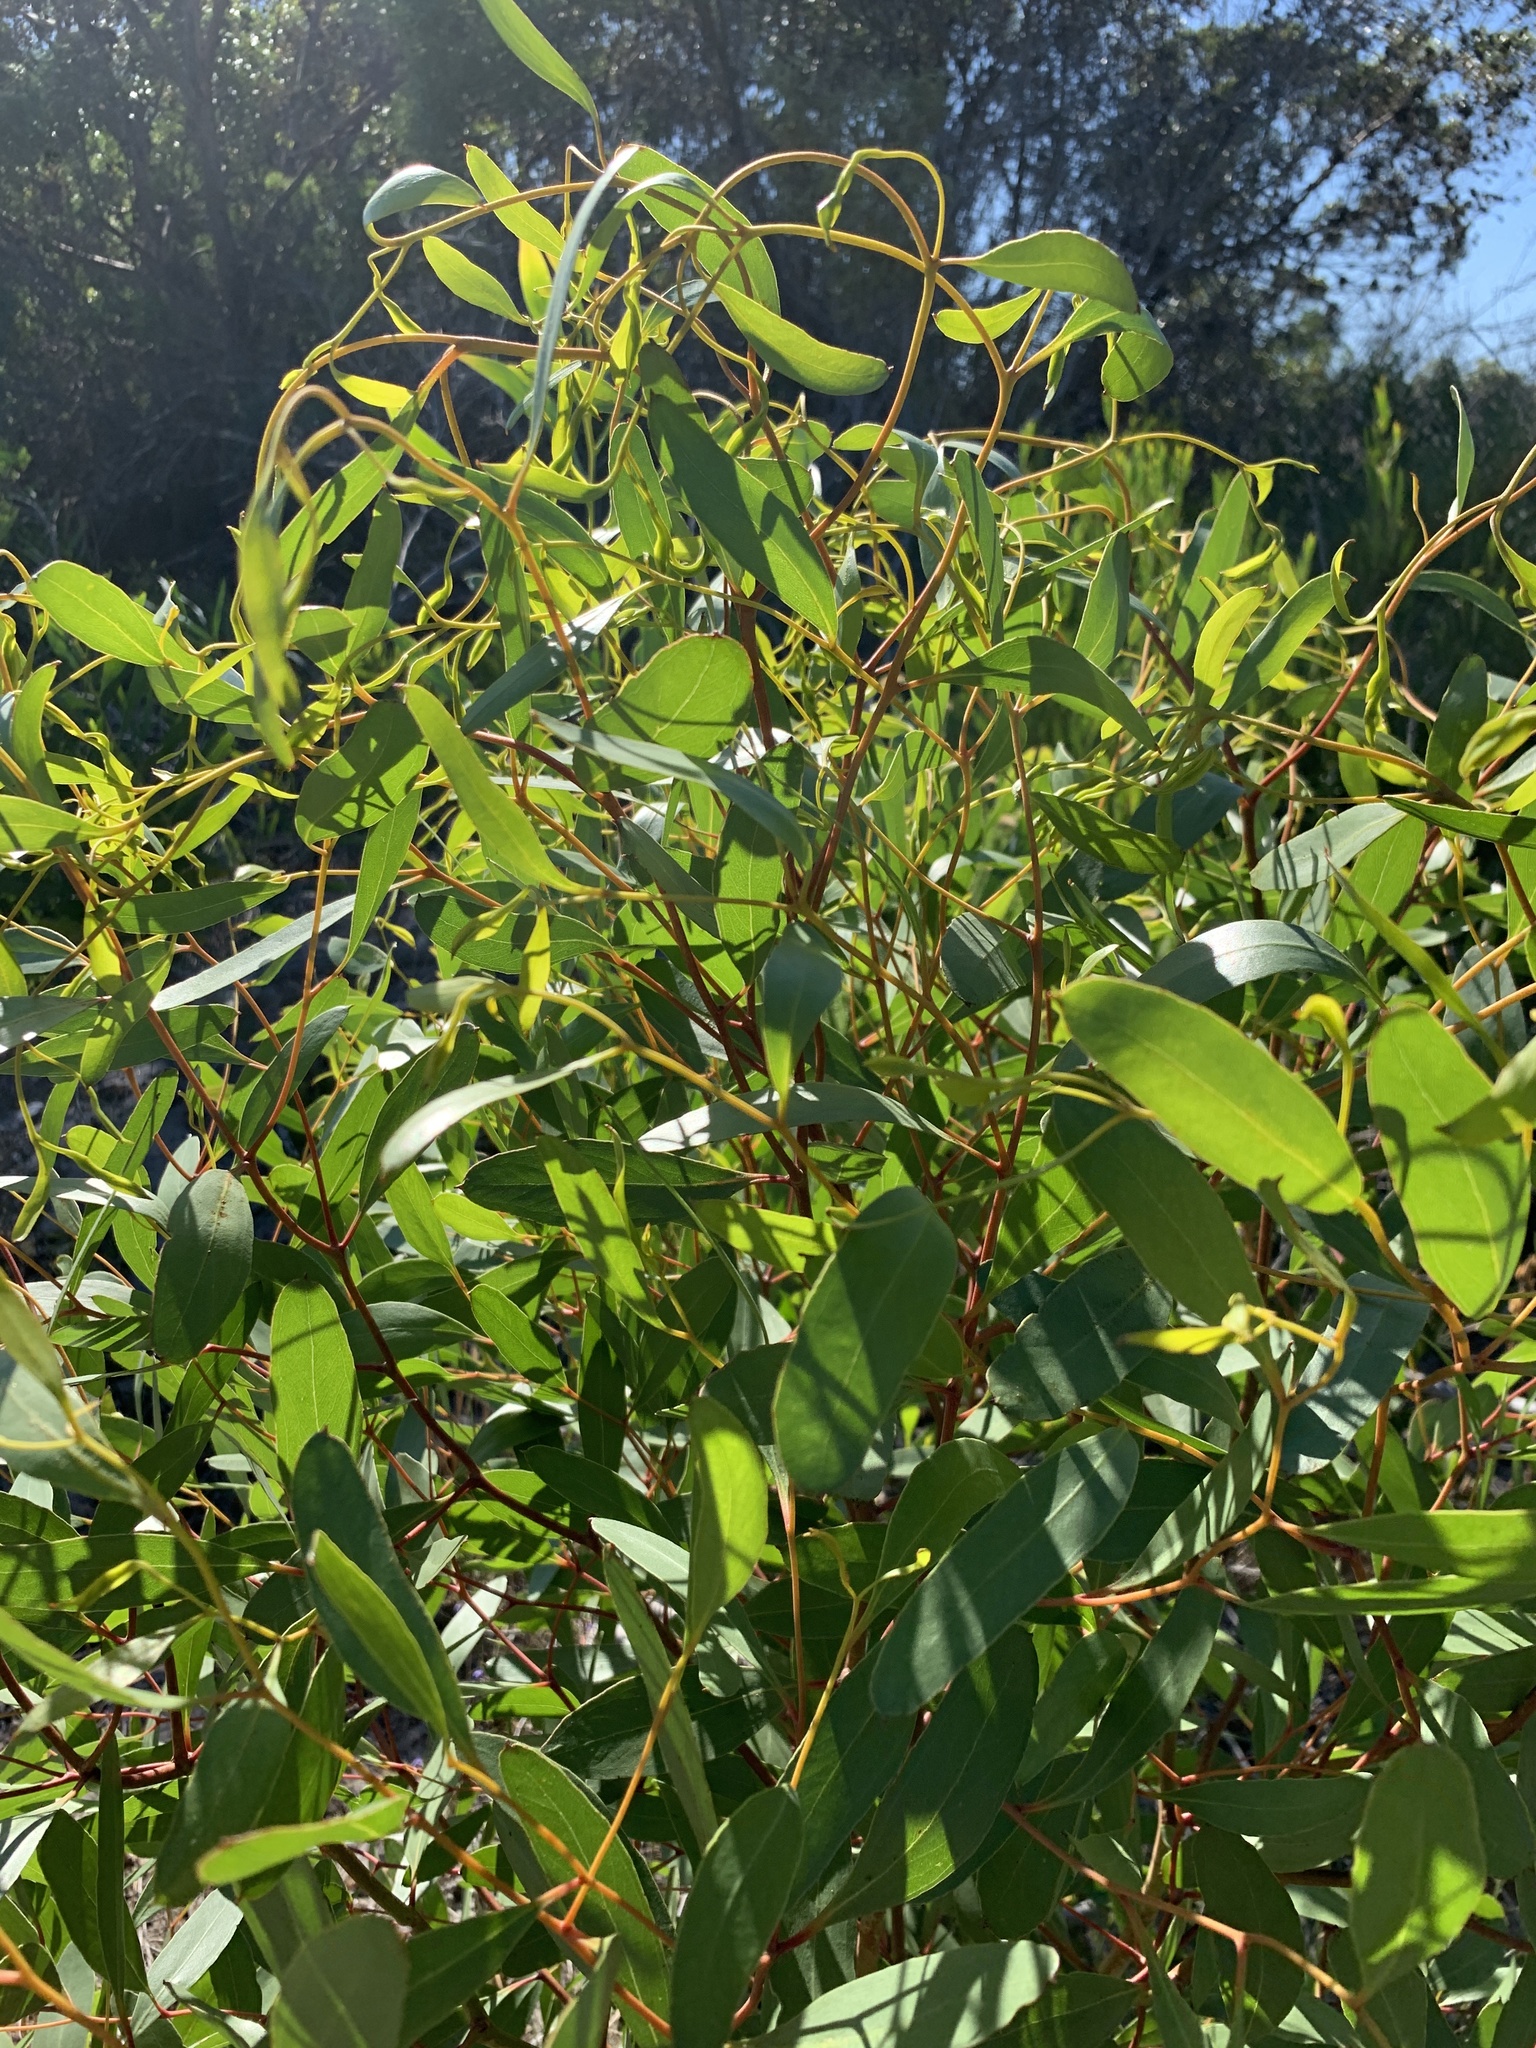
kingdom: Plantae
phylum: Tracheophyta
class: Magnoliopsida
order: Myrtales
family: Myrtaceae
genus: Eucalyptus
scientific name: Eucalyptus conferruminata
